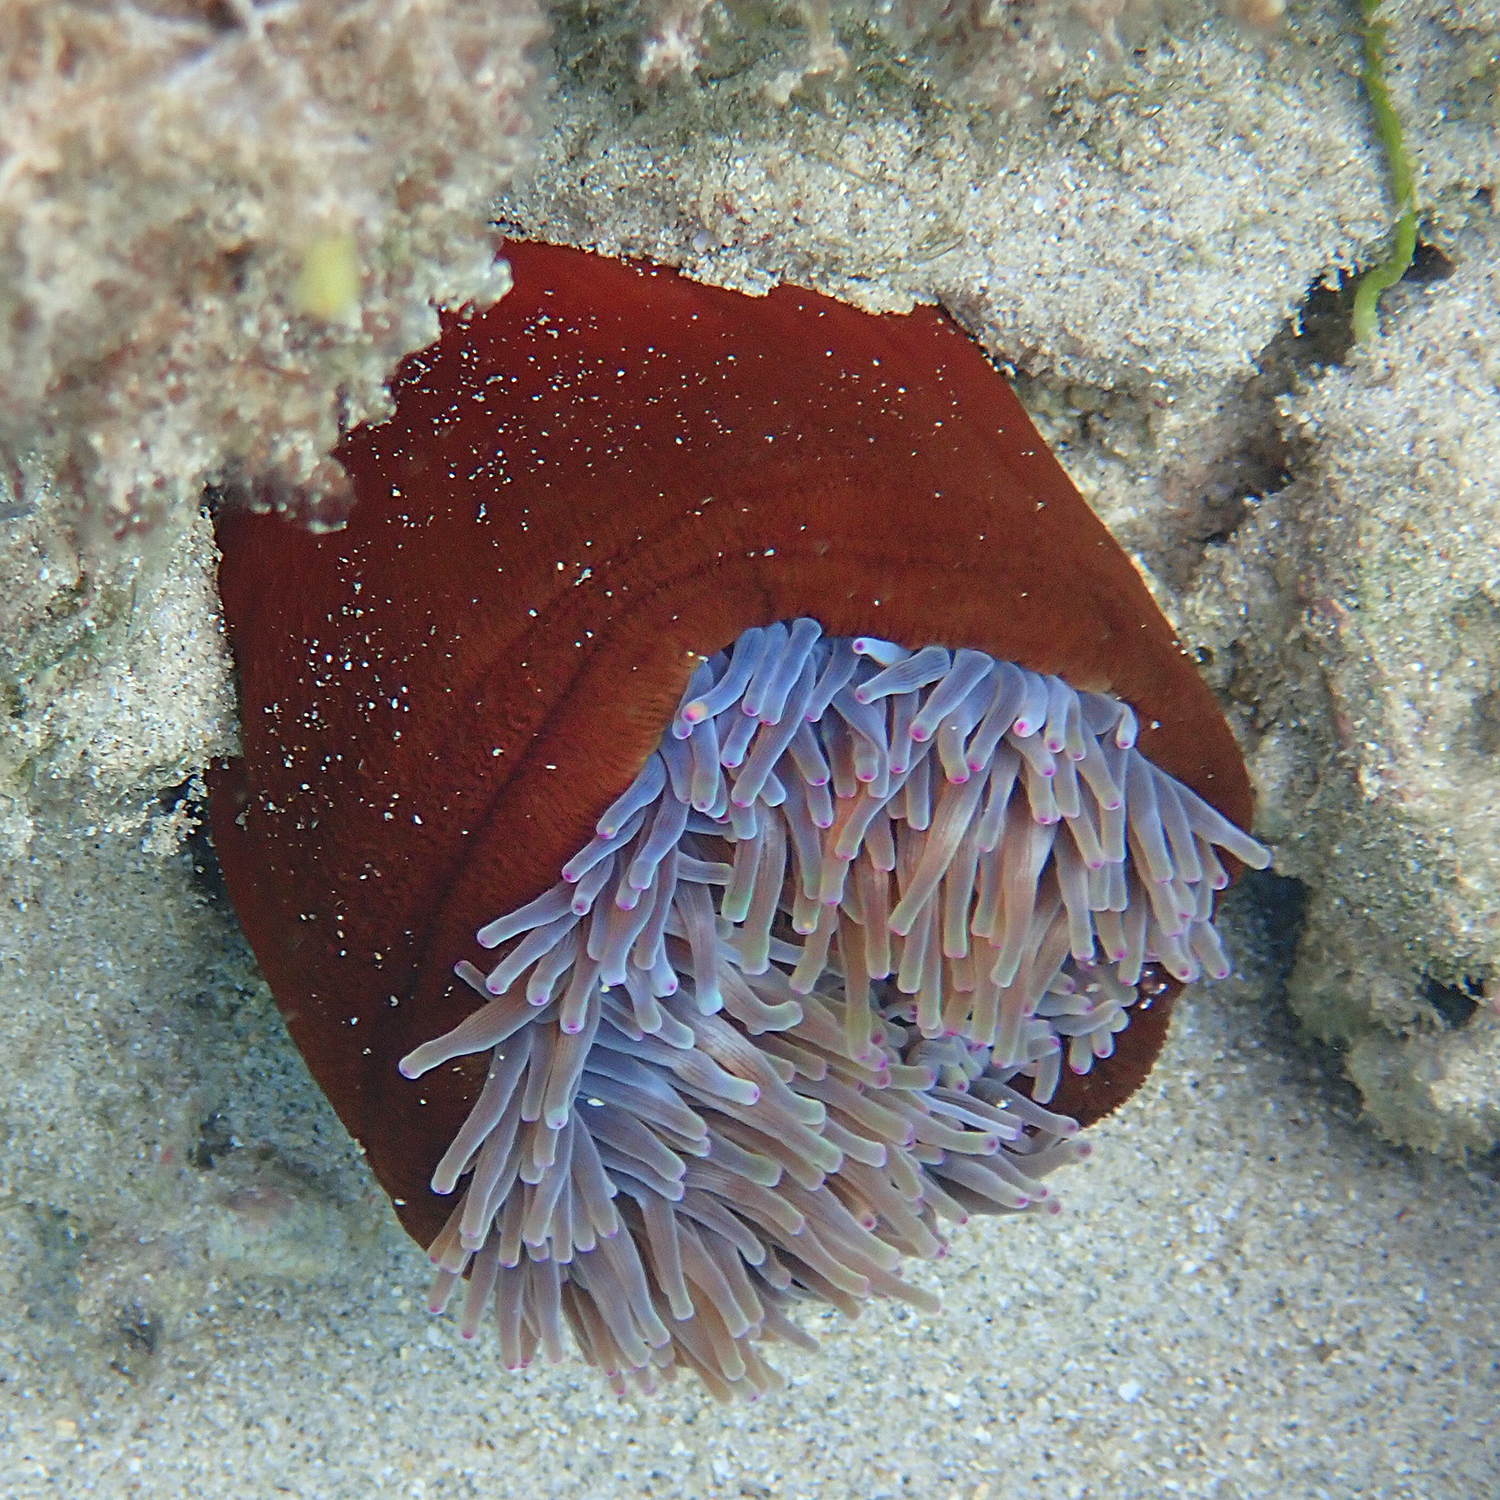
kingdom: Animalia
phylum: Cnidaria
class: Anthozoa
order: Actiniaria
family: Actiniidae
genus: Entacmaea
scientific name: Entacmaea quadricolor
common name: Bulb tentacle sea anemone
